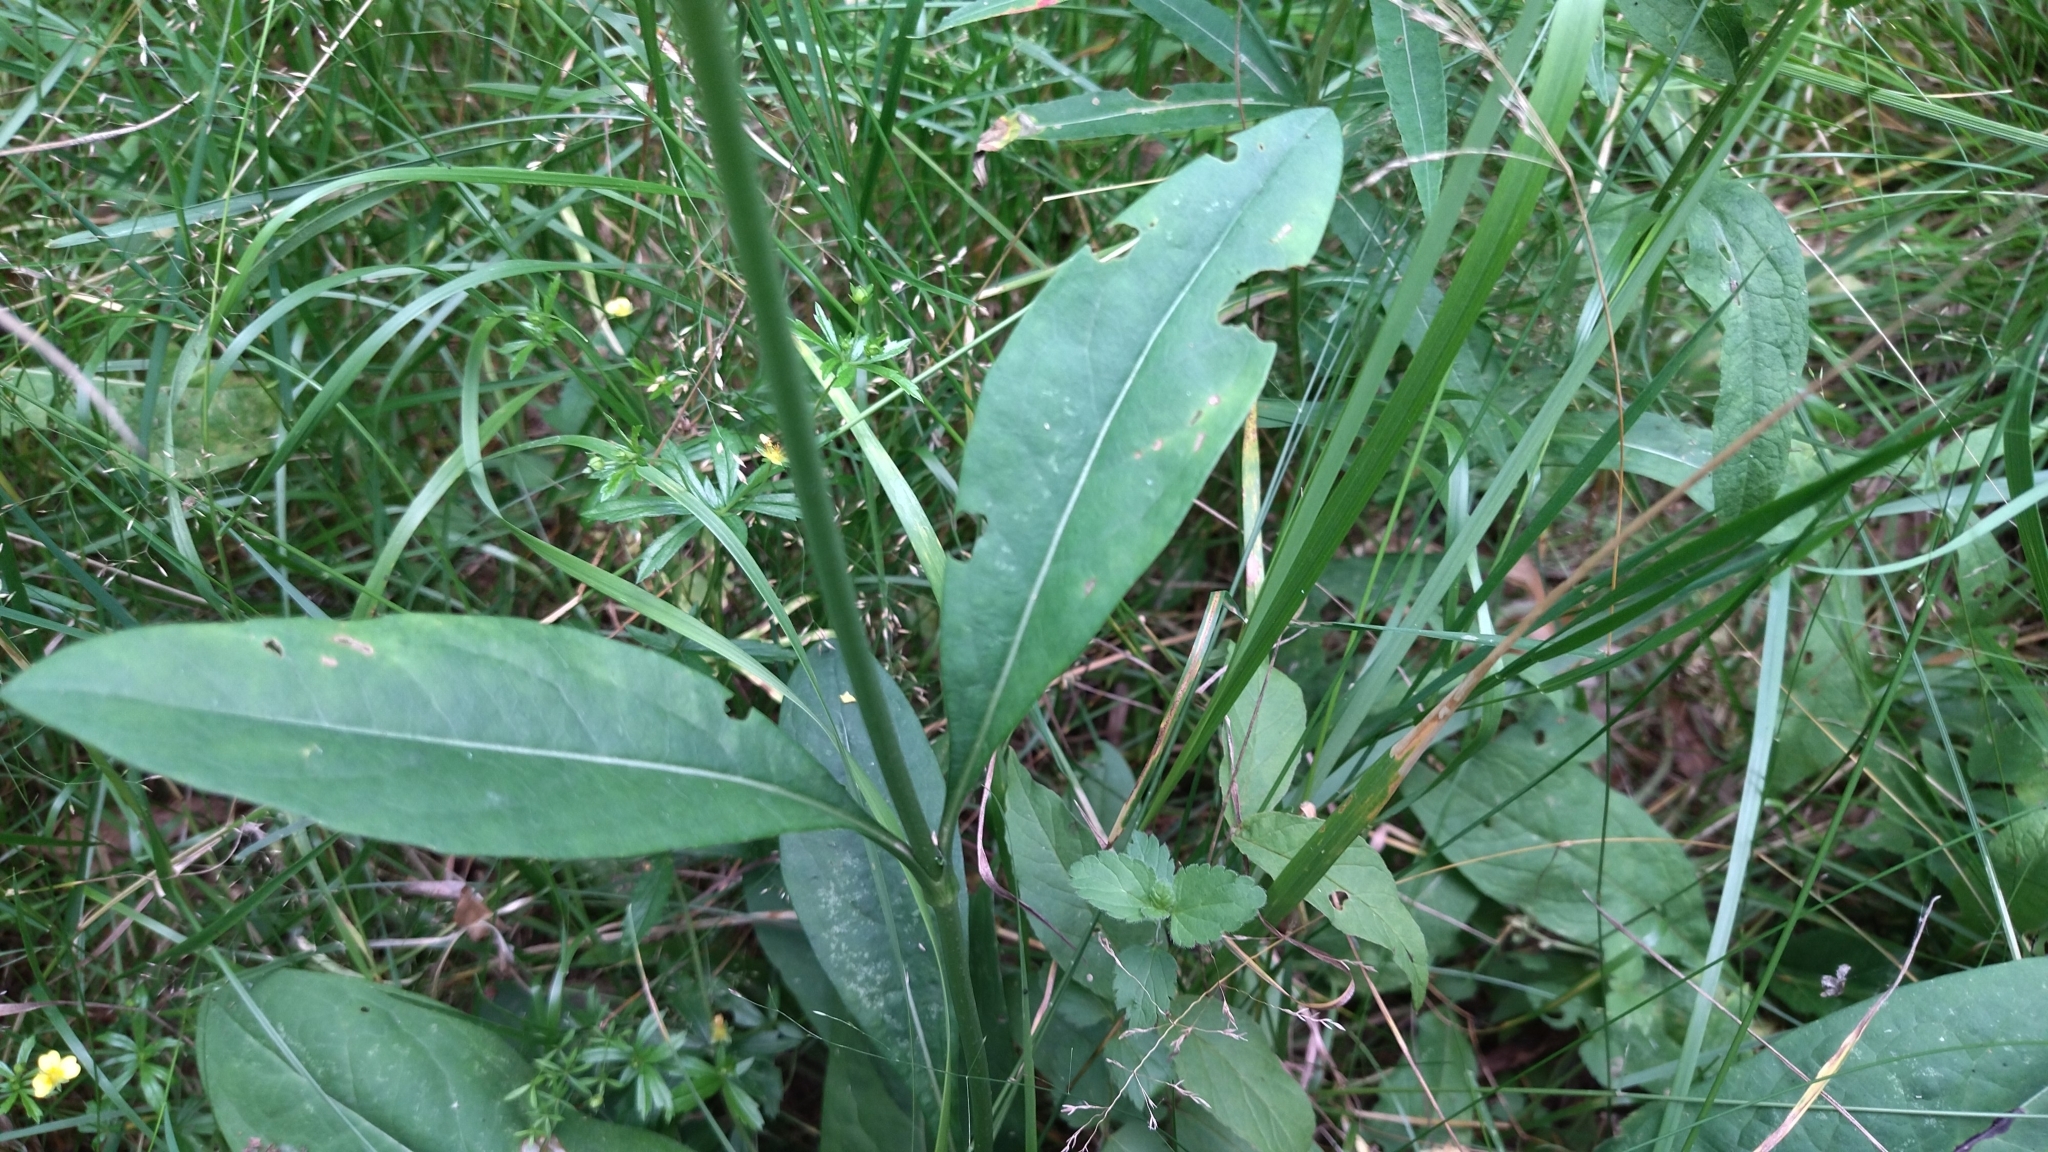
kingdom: Plantae
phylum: Tracheophyta
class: Magnoliopsida
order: Dipsacales
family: Caprifoliaceae
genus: Succisa
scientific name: Succisa pratensis
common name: Devil's-bit
